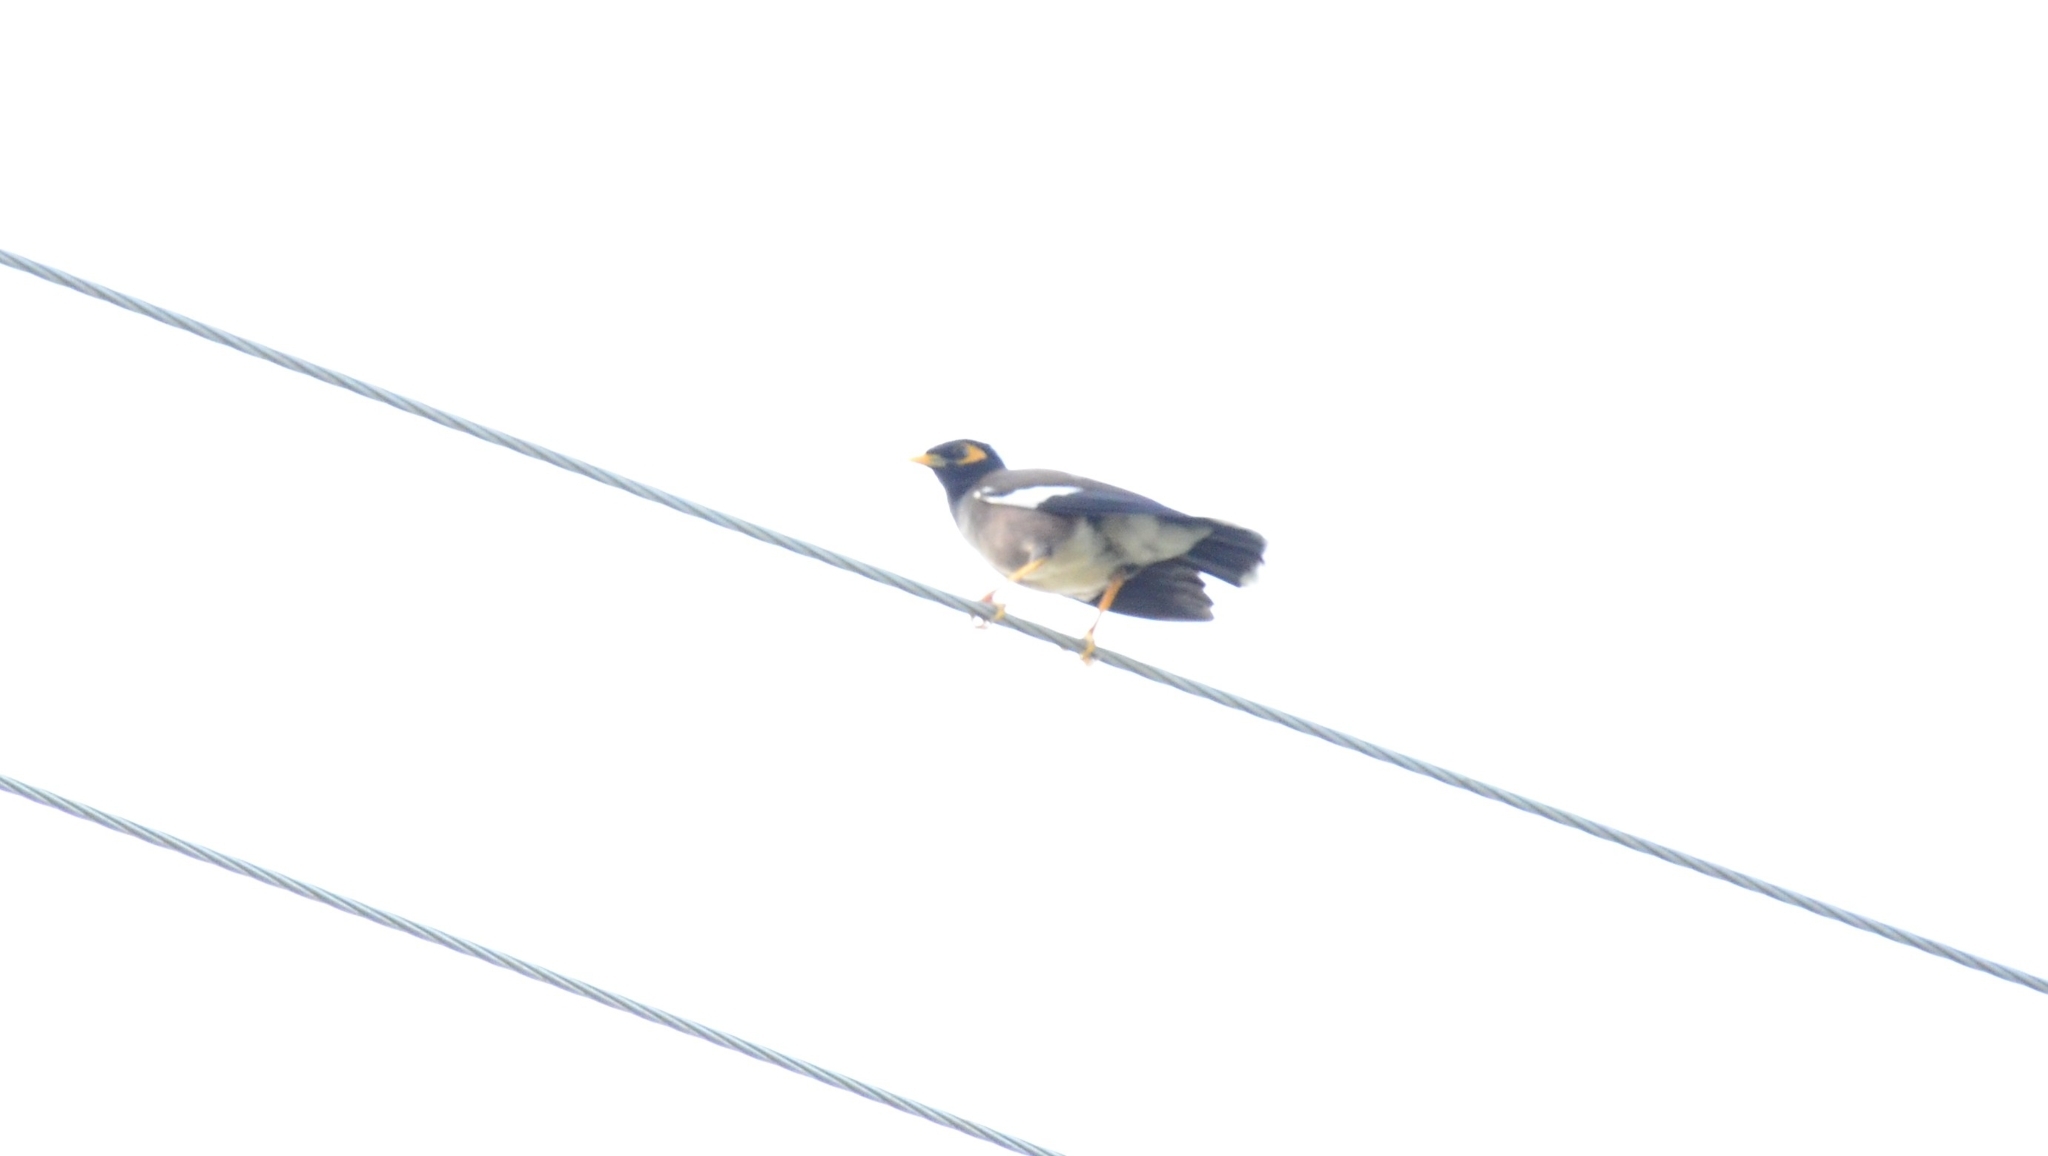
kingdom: Animalia
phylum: Chordata
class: Aves
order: Passeriformes
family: Sturnidae
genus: Acridotheres
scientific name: Acridotheres tristis
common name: Common myna
